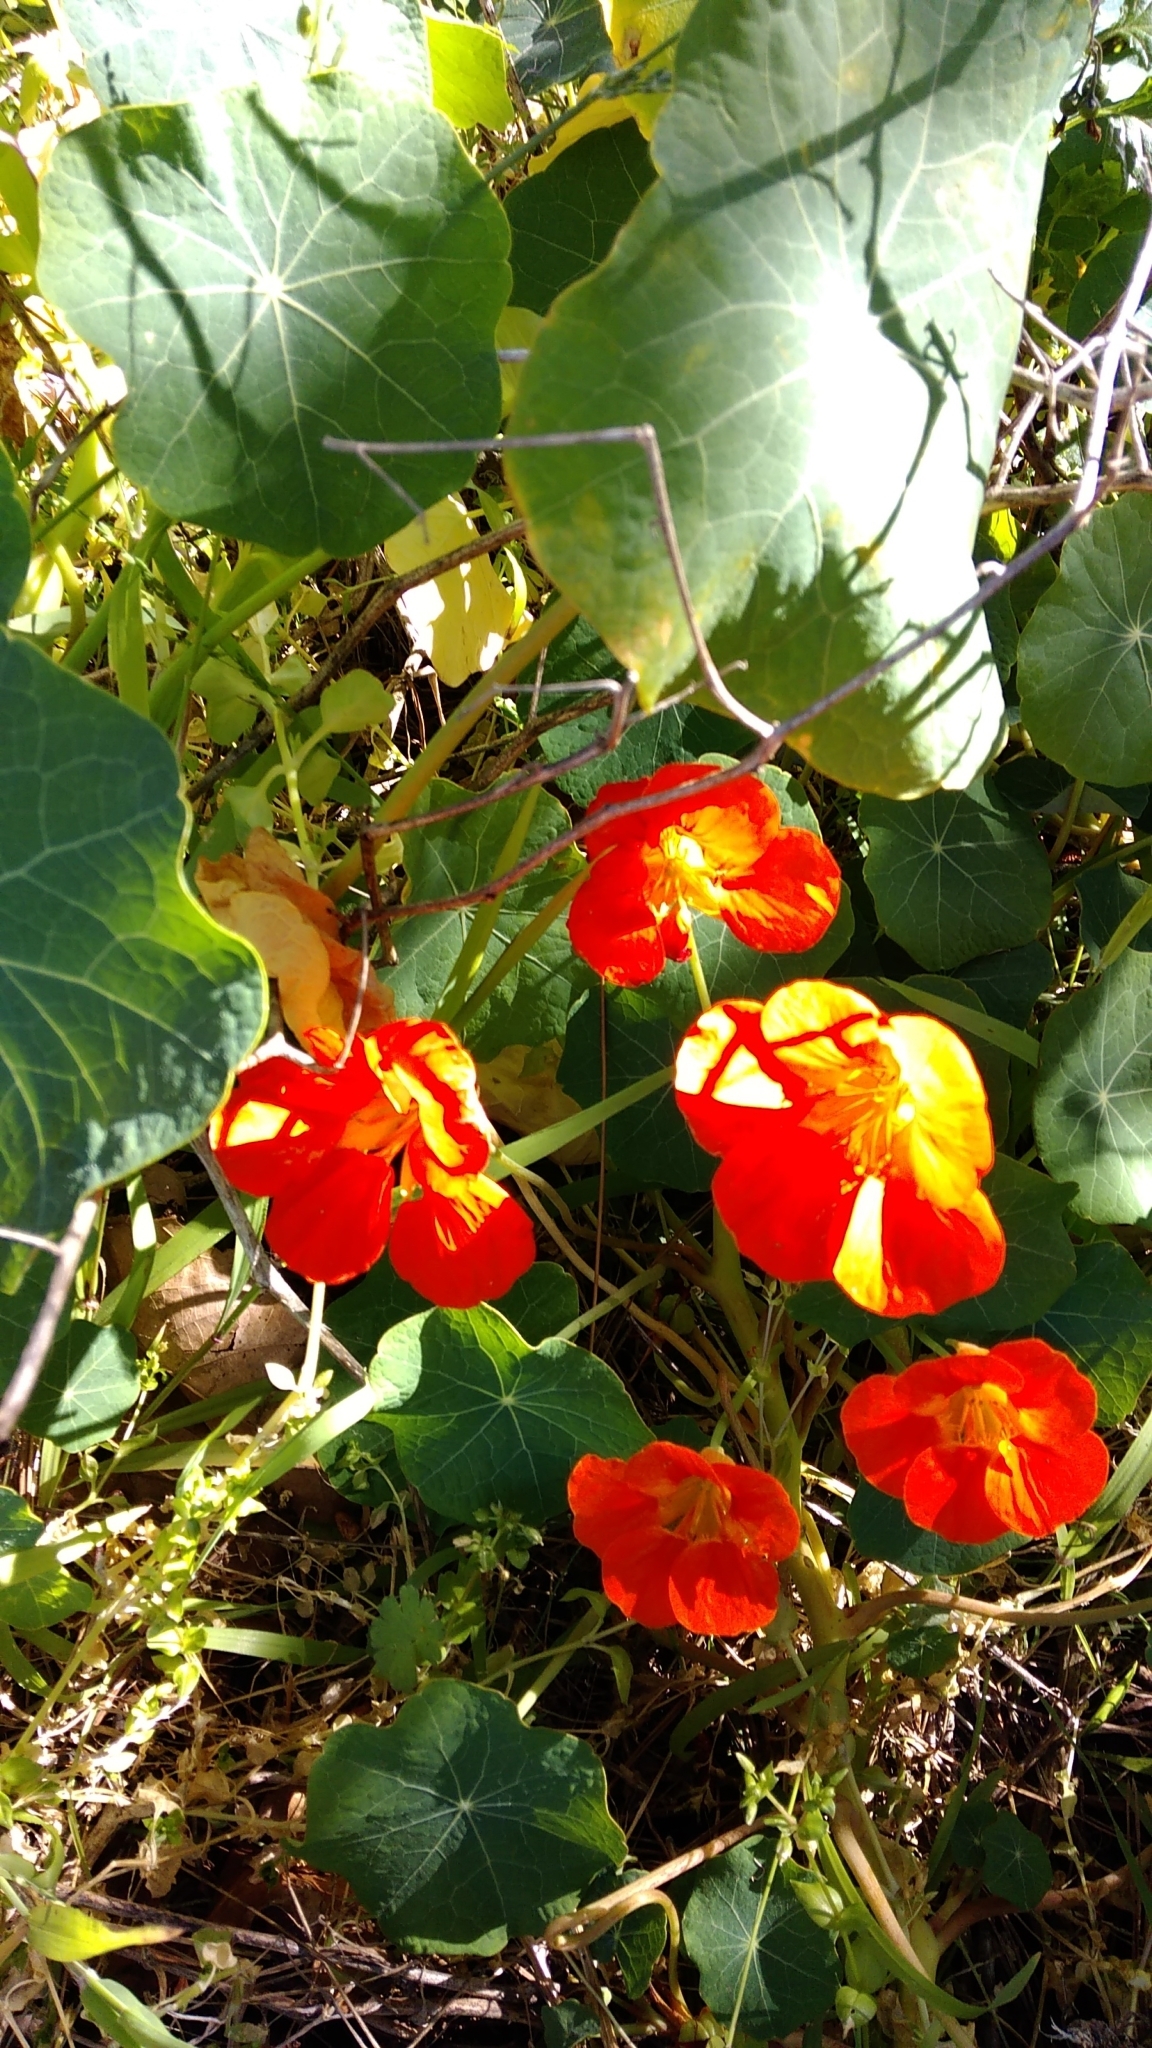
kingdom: Plantae
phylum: Tracheophyta
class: Magnoliopsida
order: Brassicales
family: Tropaeolaceae
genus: Tropaeolum
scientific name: Tropaeolum majus
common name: Nasturtium
